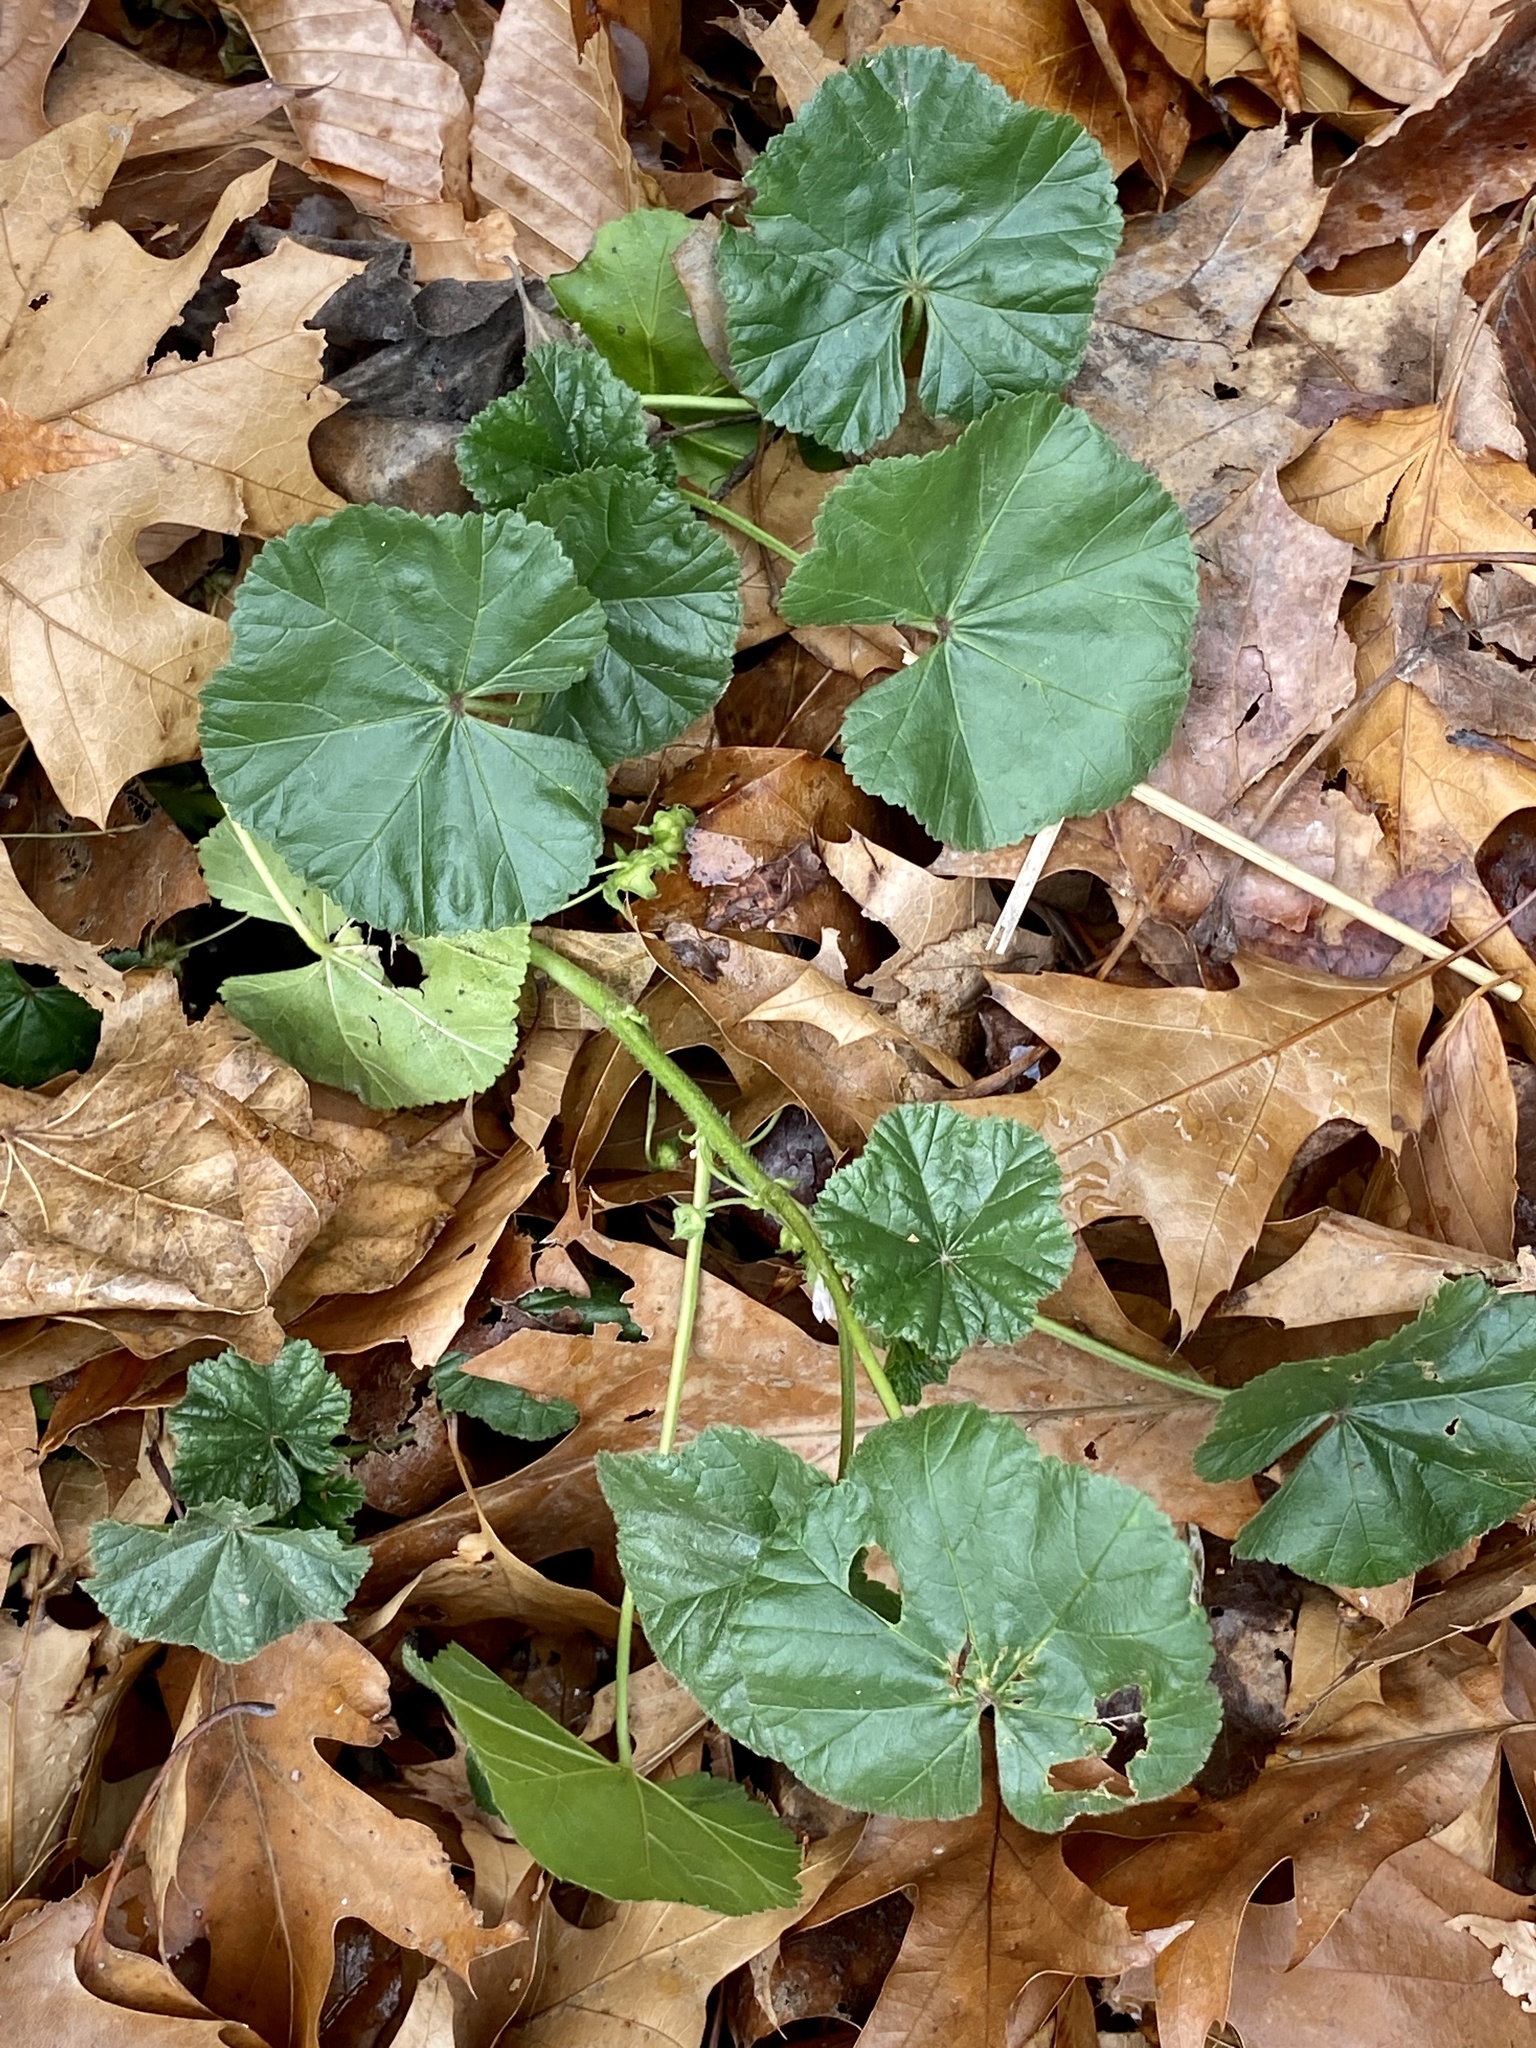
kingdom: Plantae
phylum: Tracheophyta
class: Magnoliopsida
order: Malvales
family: Malvaceae
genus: Malva
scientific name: Malva neglecta
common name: Common mallow
